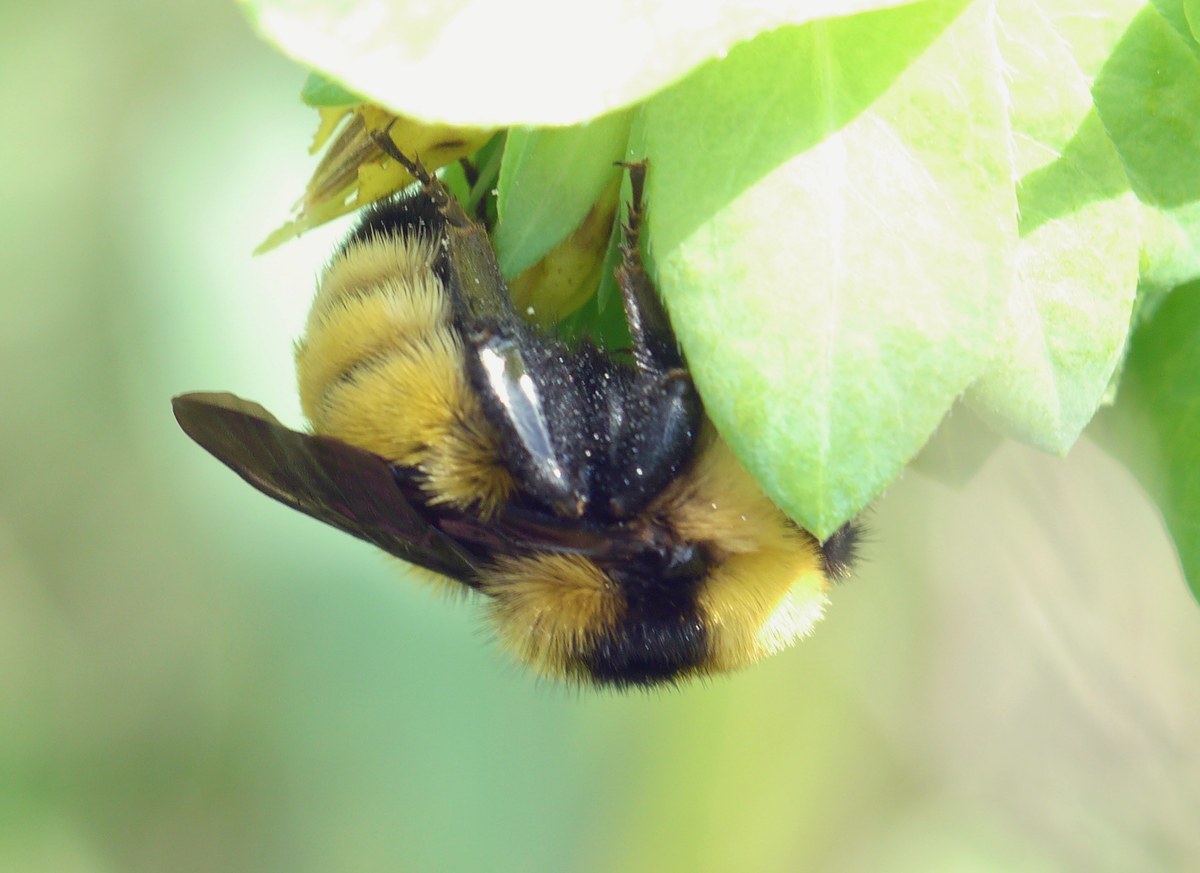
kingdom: Animalia
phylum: Arthropoda
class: Insecta
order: Hymenoptera
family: Apidae
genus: Bombus
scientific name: Bombus zonatus
